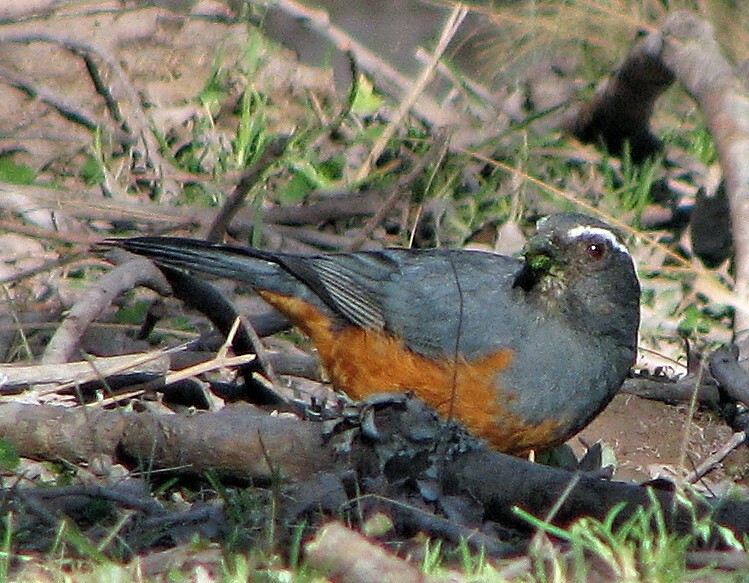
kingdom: Animalia
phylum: Chordata
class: Aves
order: Passeriformes
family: Thraupidae
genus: Pseudosaltator
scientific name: Pseudosaltator rufiventris
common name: Rufous-bellied mountain-tanager
